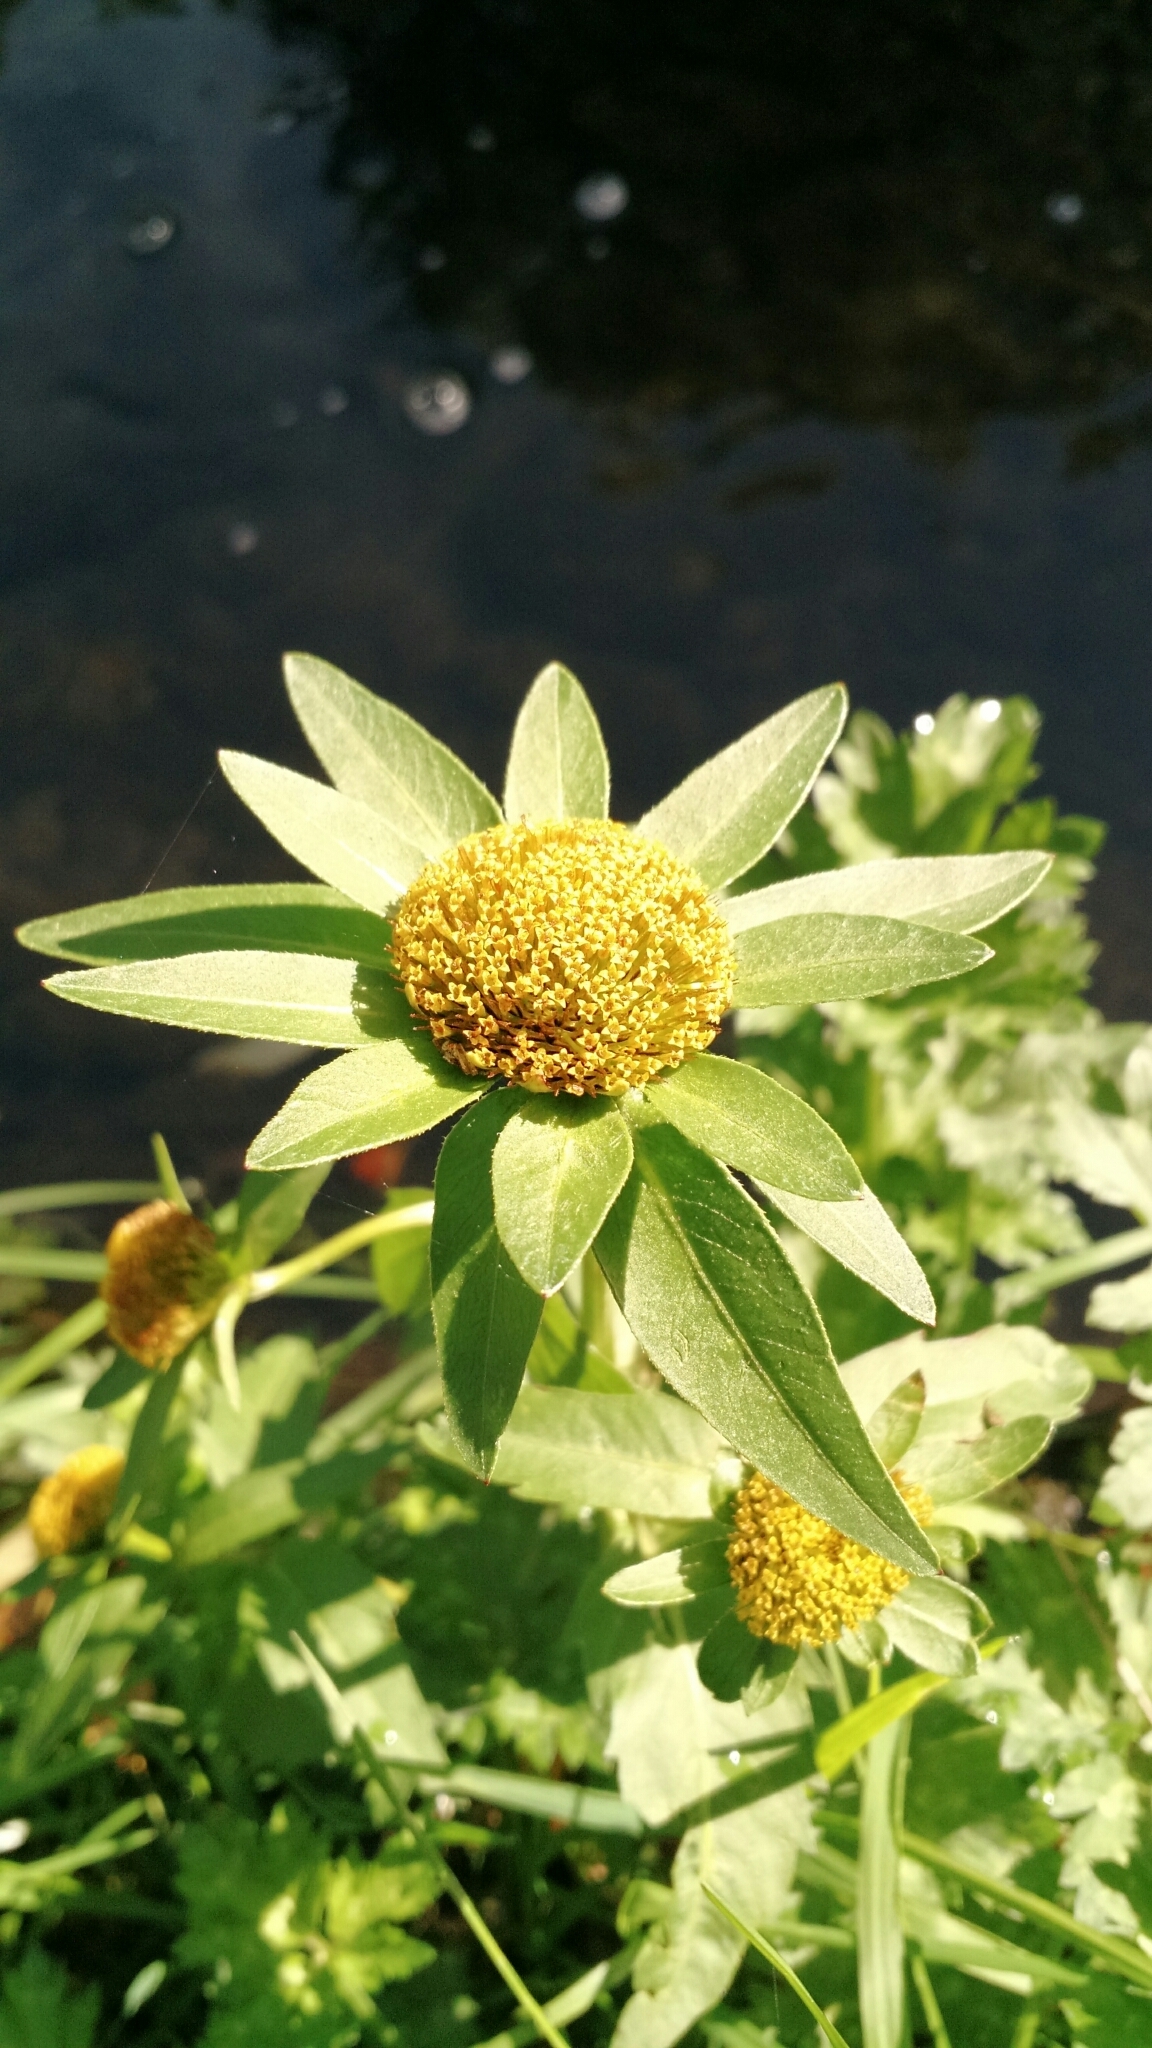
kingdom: Plantae
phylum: Tracheophyta
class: Magnoliopsida
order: Asterales
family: Asteraceae
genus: Bidens
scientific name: Bidens tripartita
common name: Trifid bur-marigold
